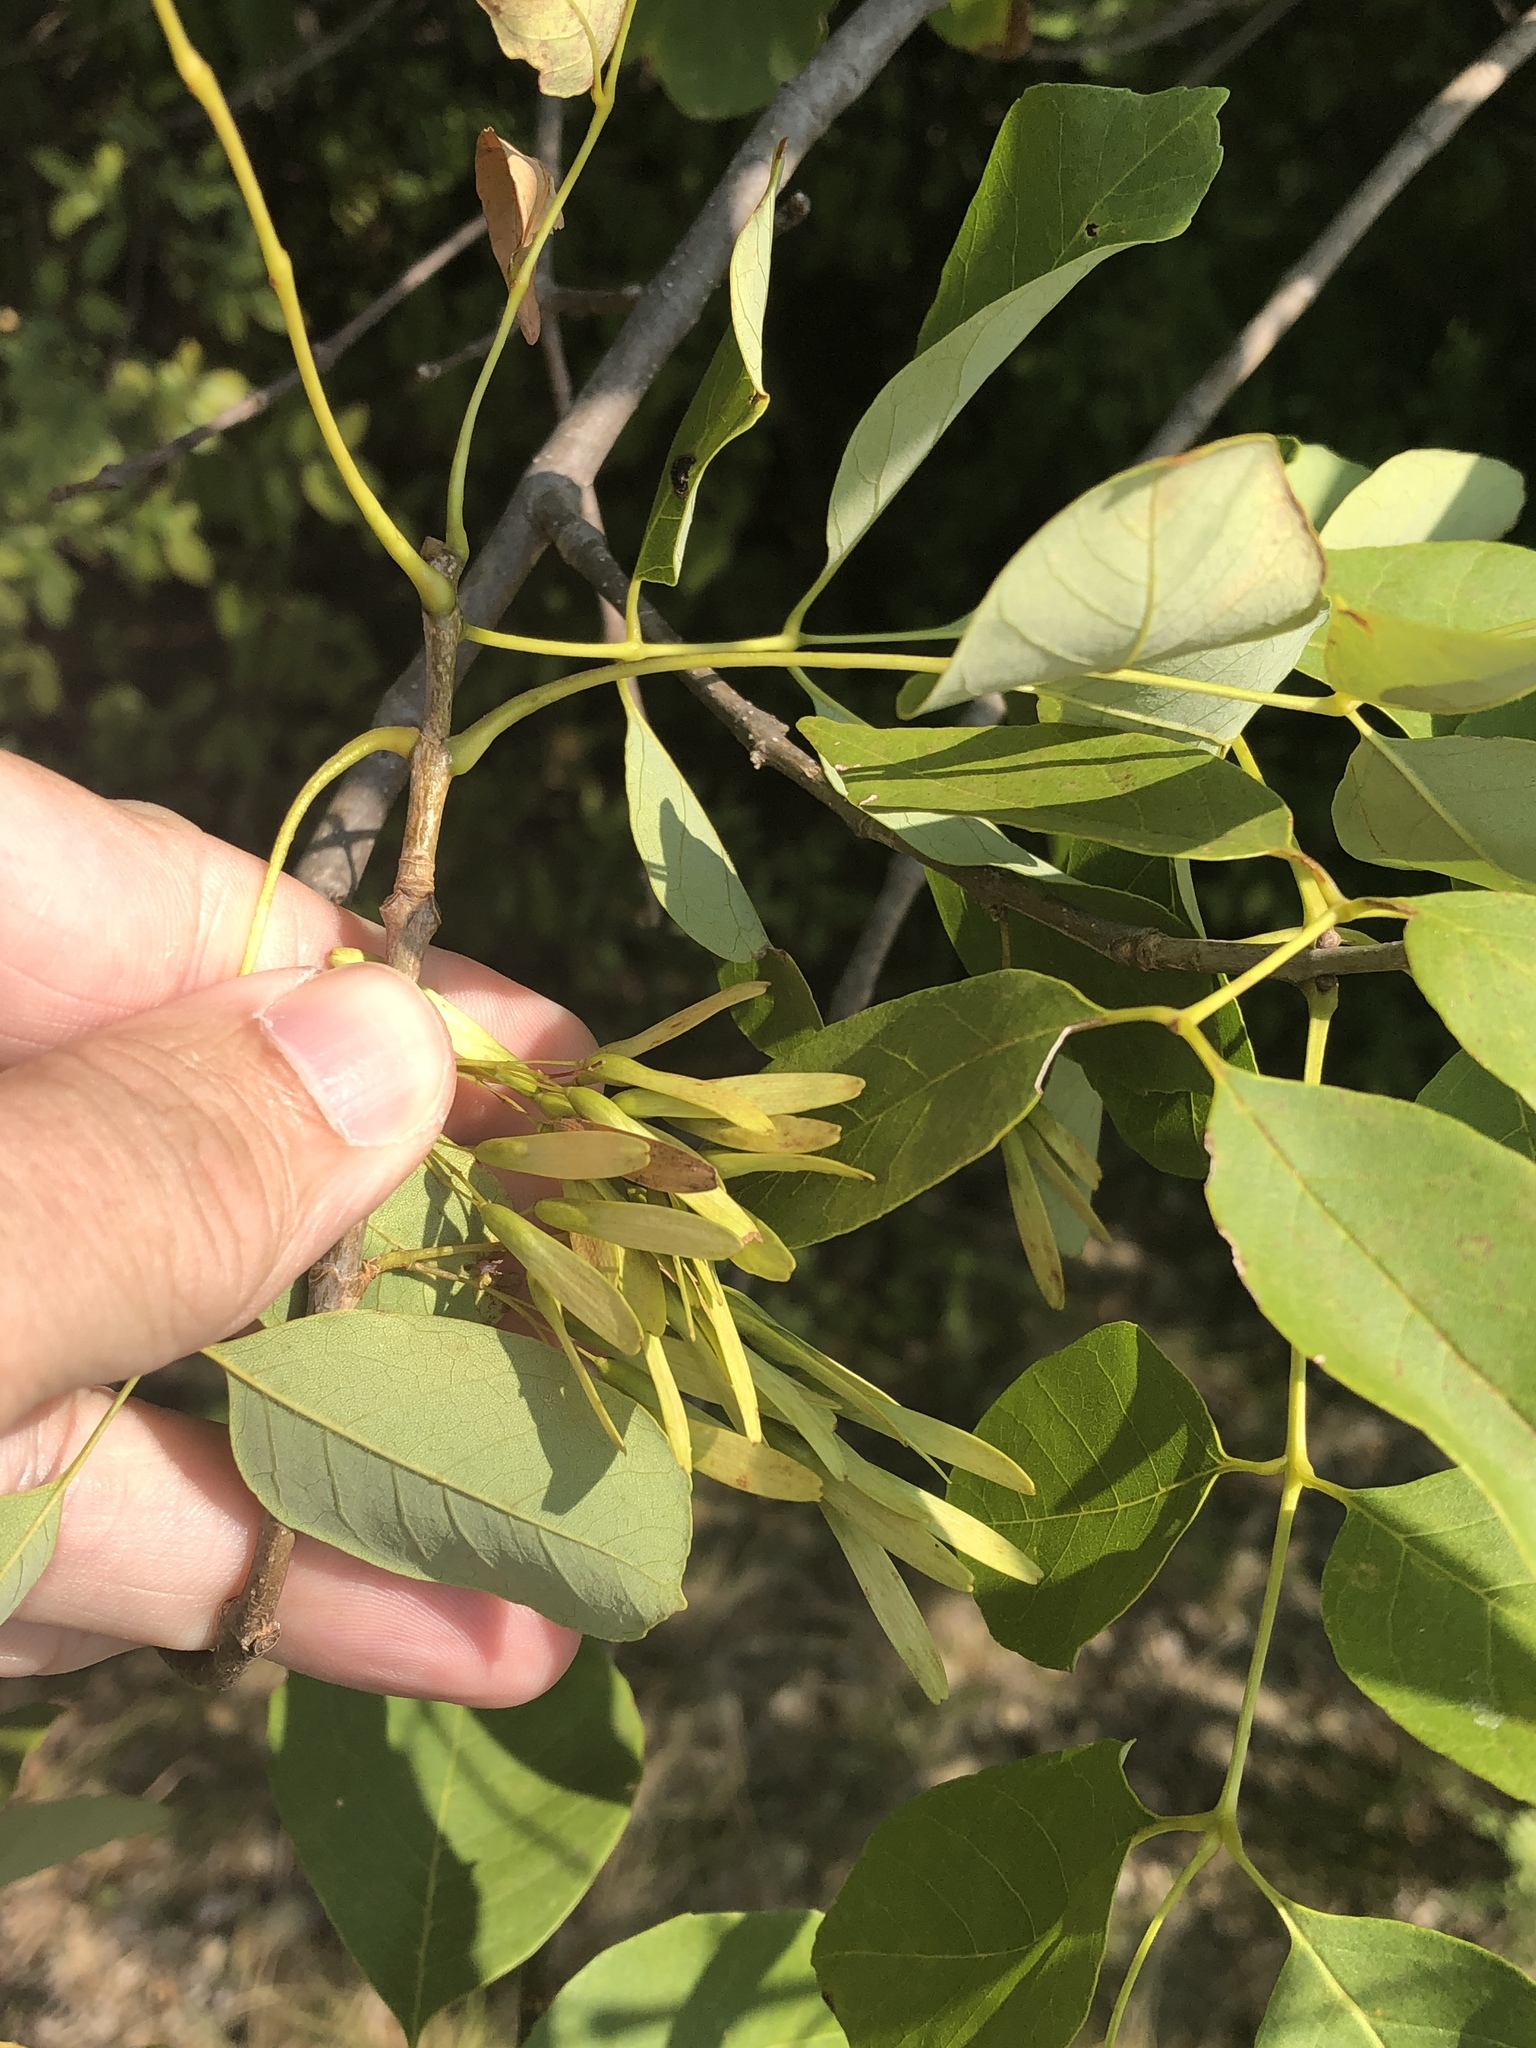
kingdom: Plantae
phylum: Tracheophyta
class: Magnoliopsida
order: Lamiales
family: Oleaceae
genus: Fraxinus
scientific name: Fraxinus albicans
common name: Texas ash
